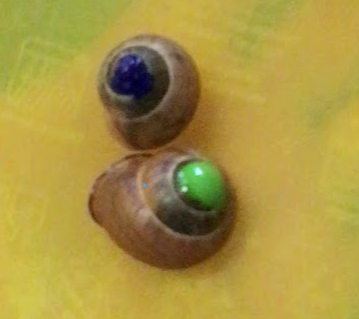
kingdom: Animalia
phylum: Mollusca
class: Gastropoda
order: Stylommatophora
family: Helicidae
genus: Cepaea
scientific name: Cepaea nemoralis
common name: Grovesnail
